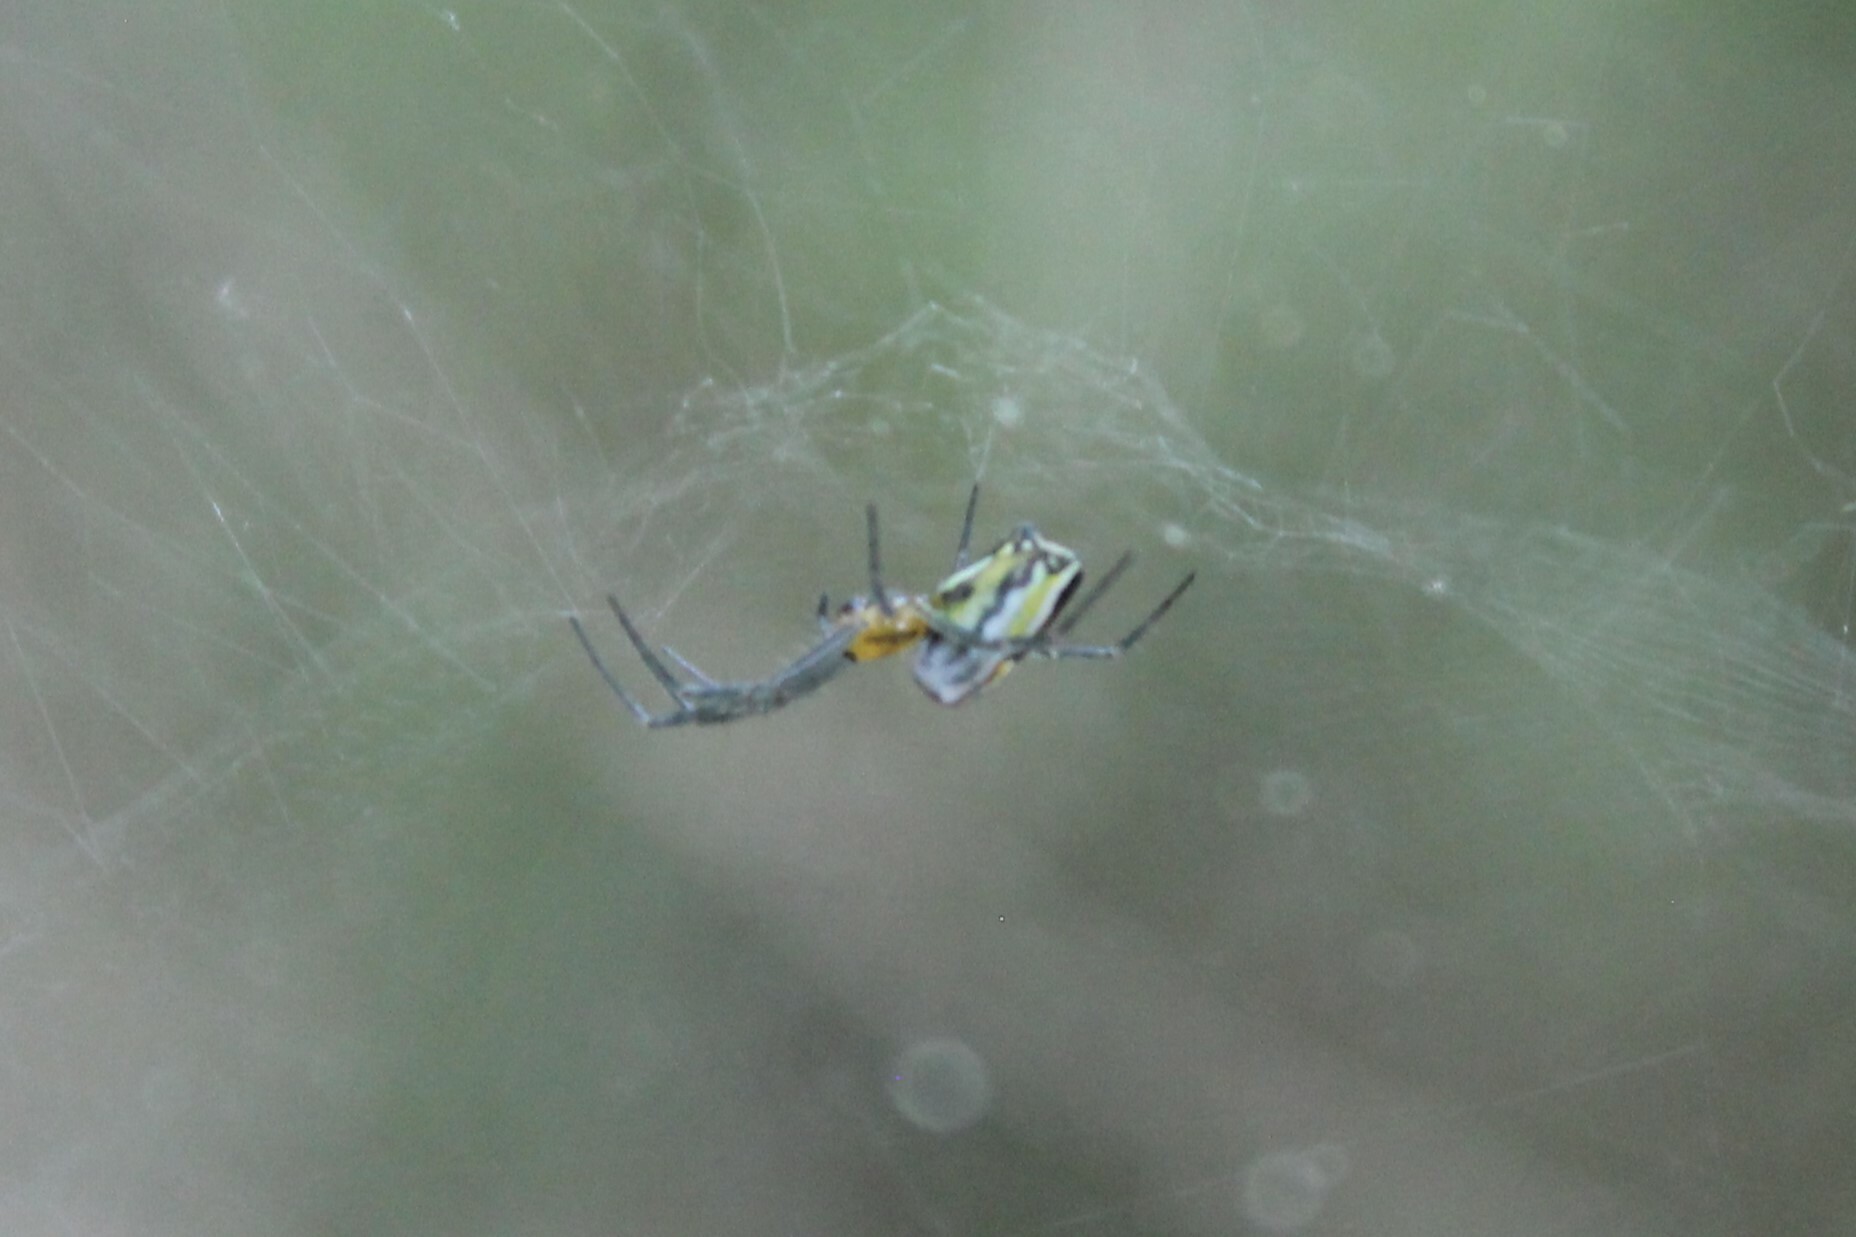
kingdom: Animalia
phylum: Arthropoda
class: Arachnida
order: Araneae
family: Araneidae
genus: Mecynogea
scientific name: Mecynogea lemniscata
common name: Orb weavers
